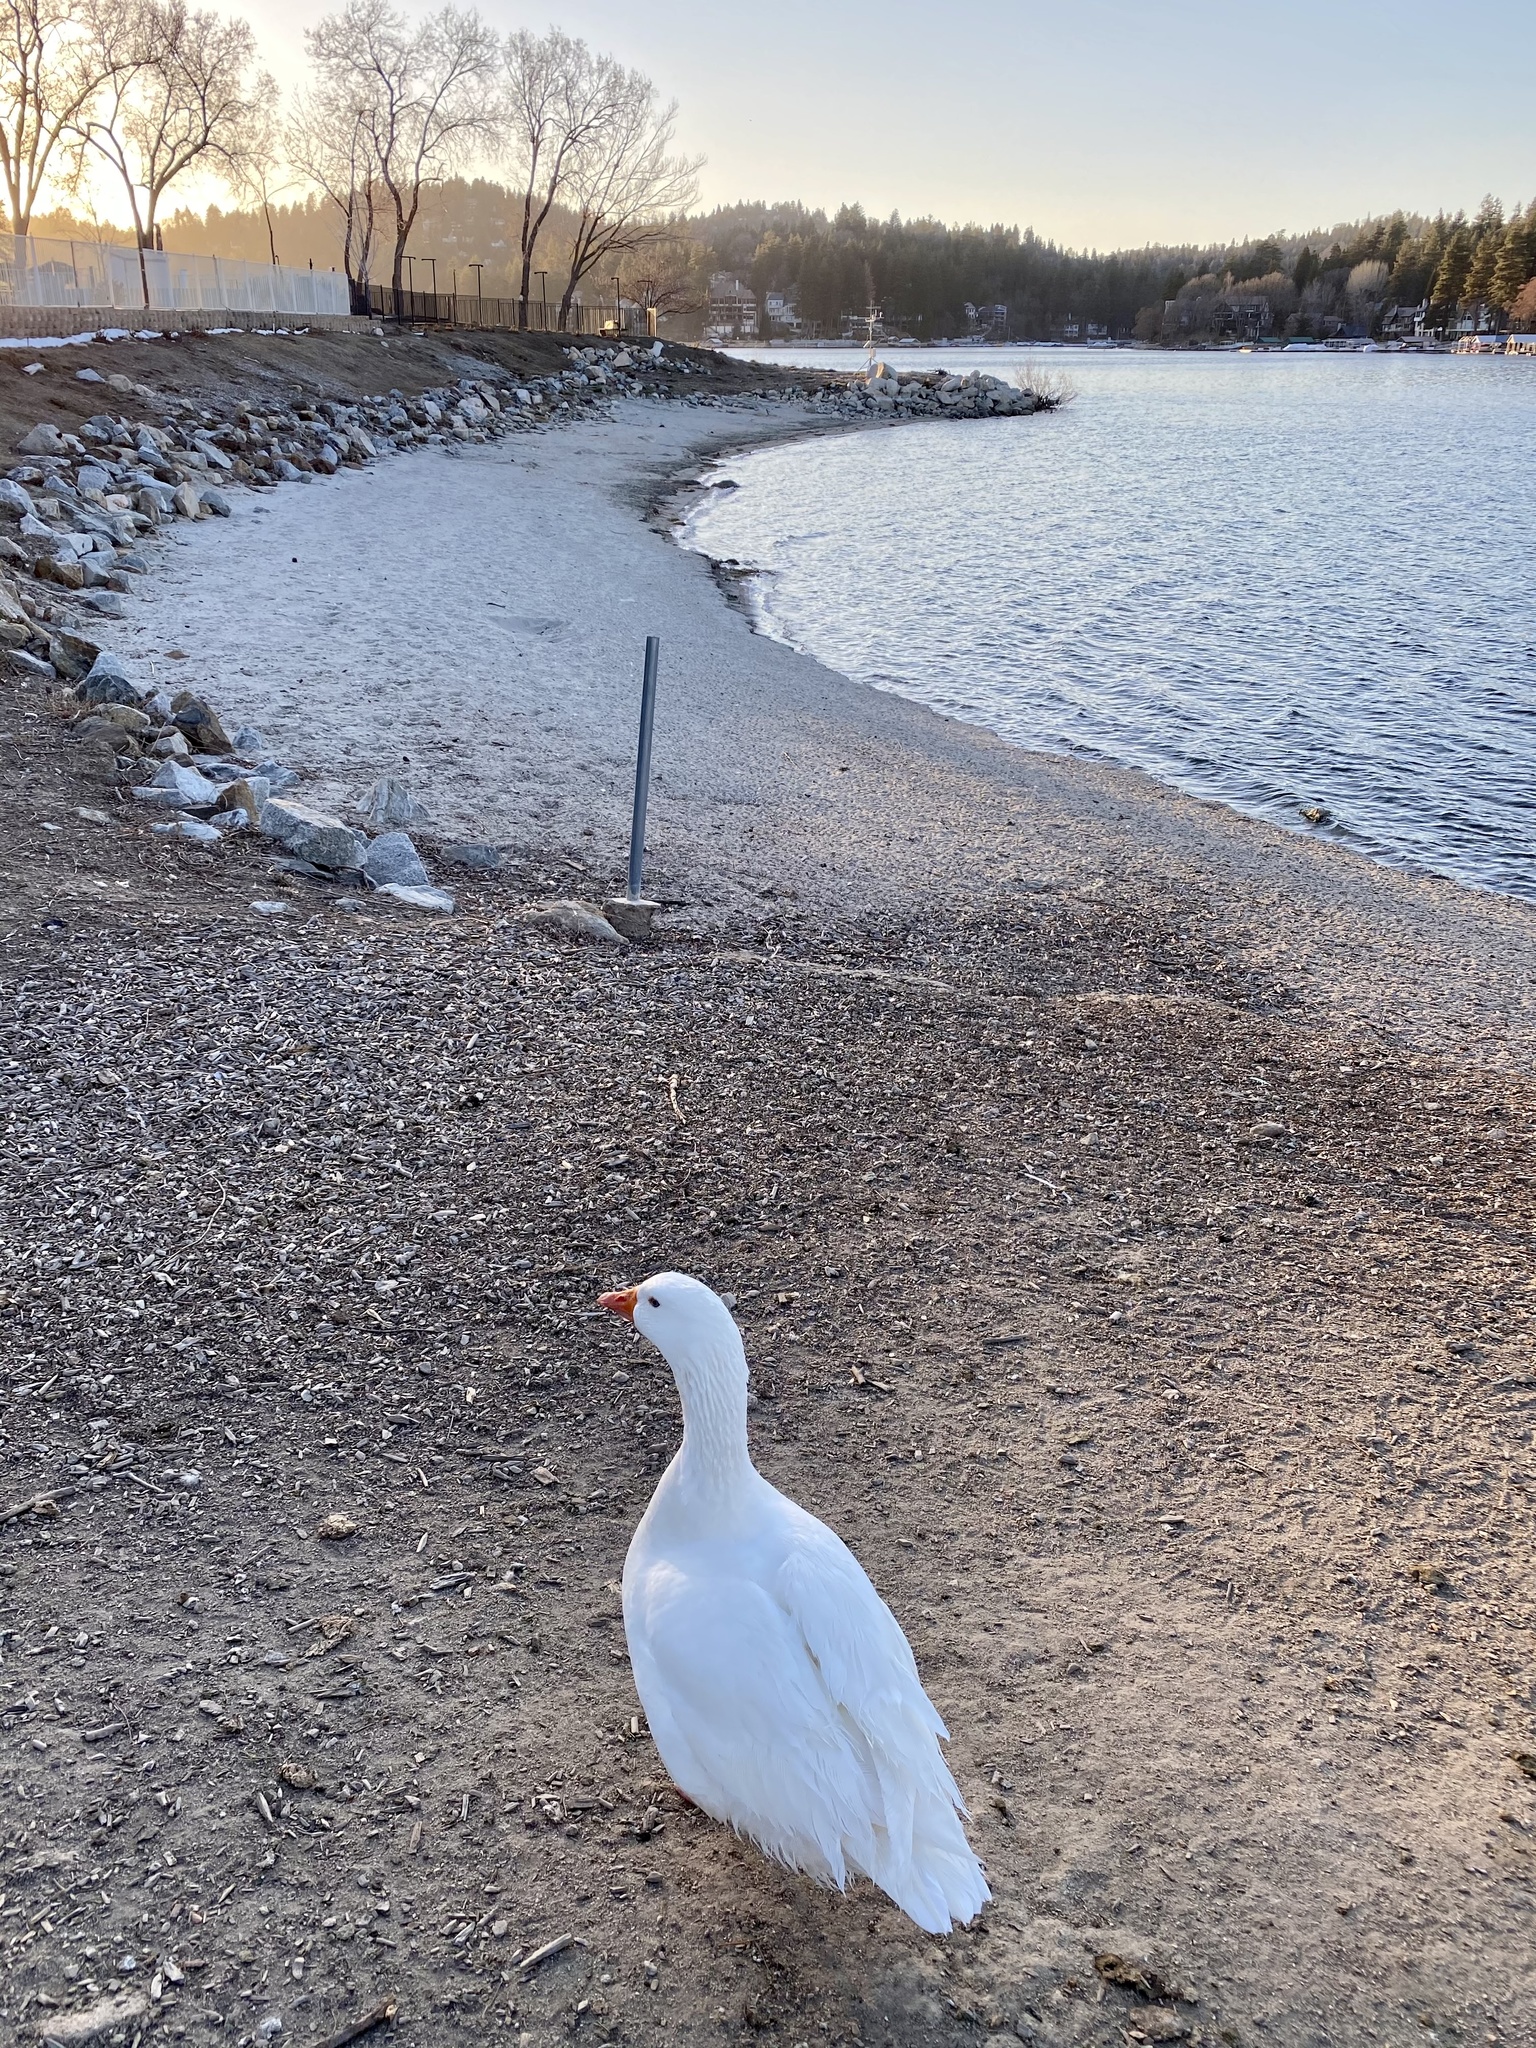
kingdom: Animalia
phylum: Chordata
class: Aves
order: Anseriformes
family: Anatidae
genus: Anser
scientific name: Anser anser
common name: Greylag goose
